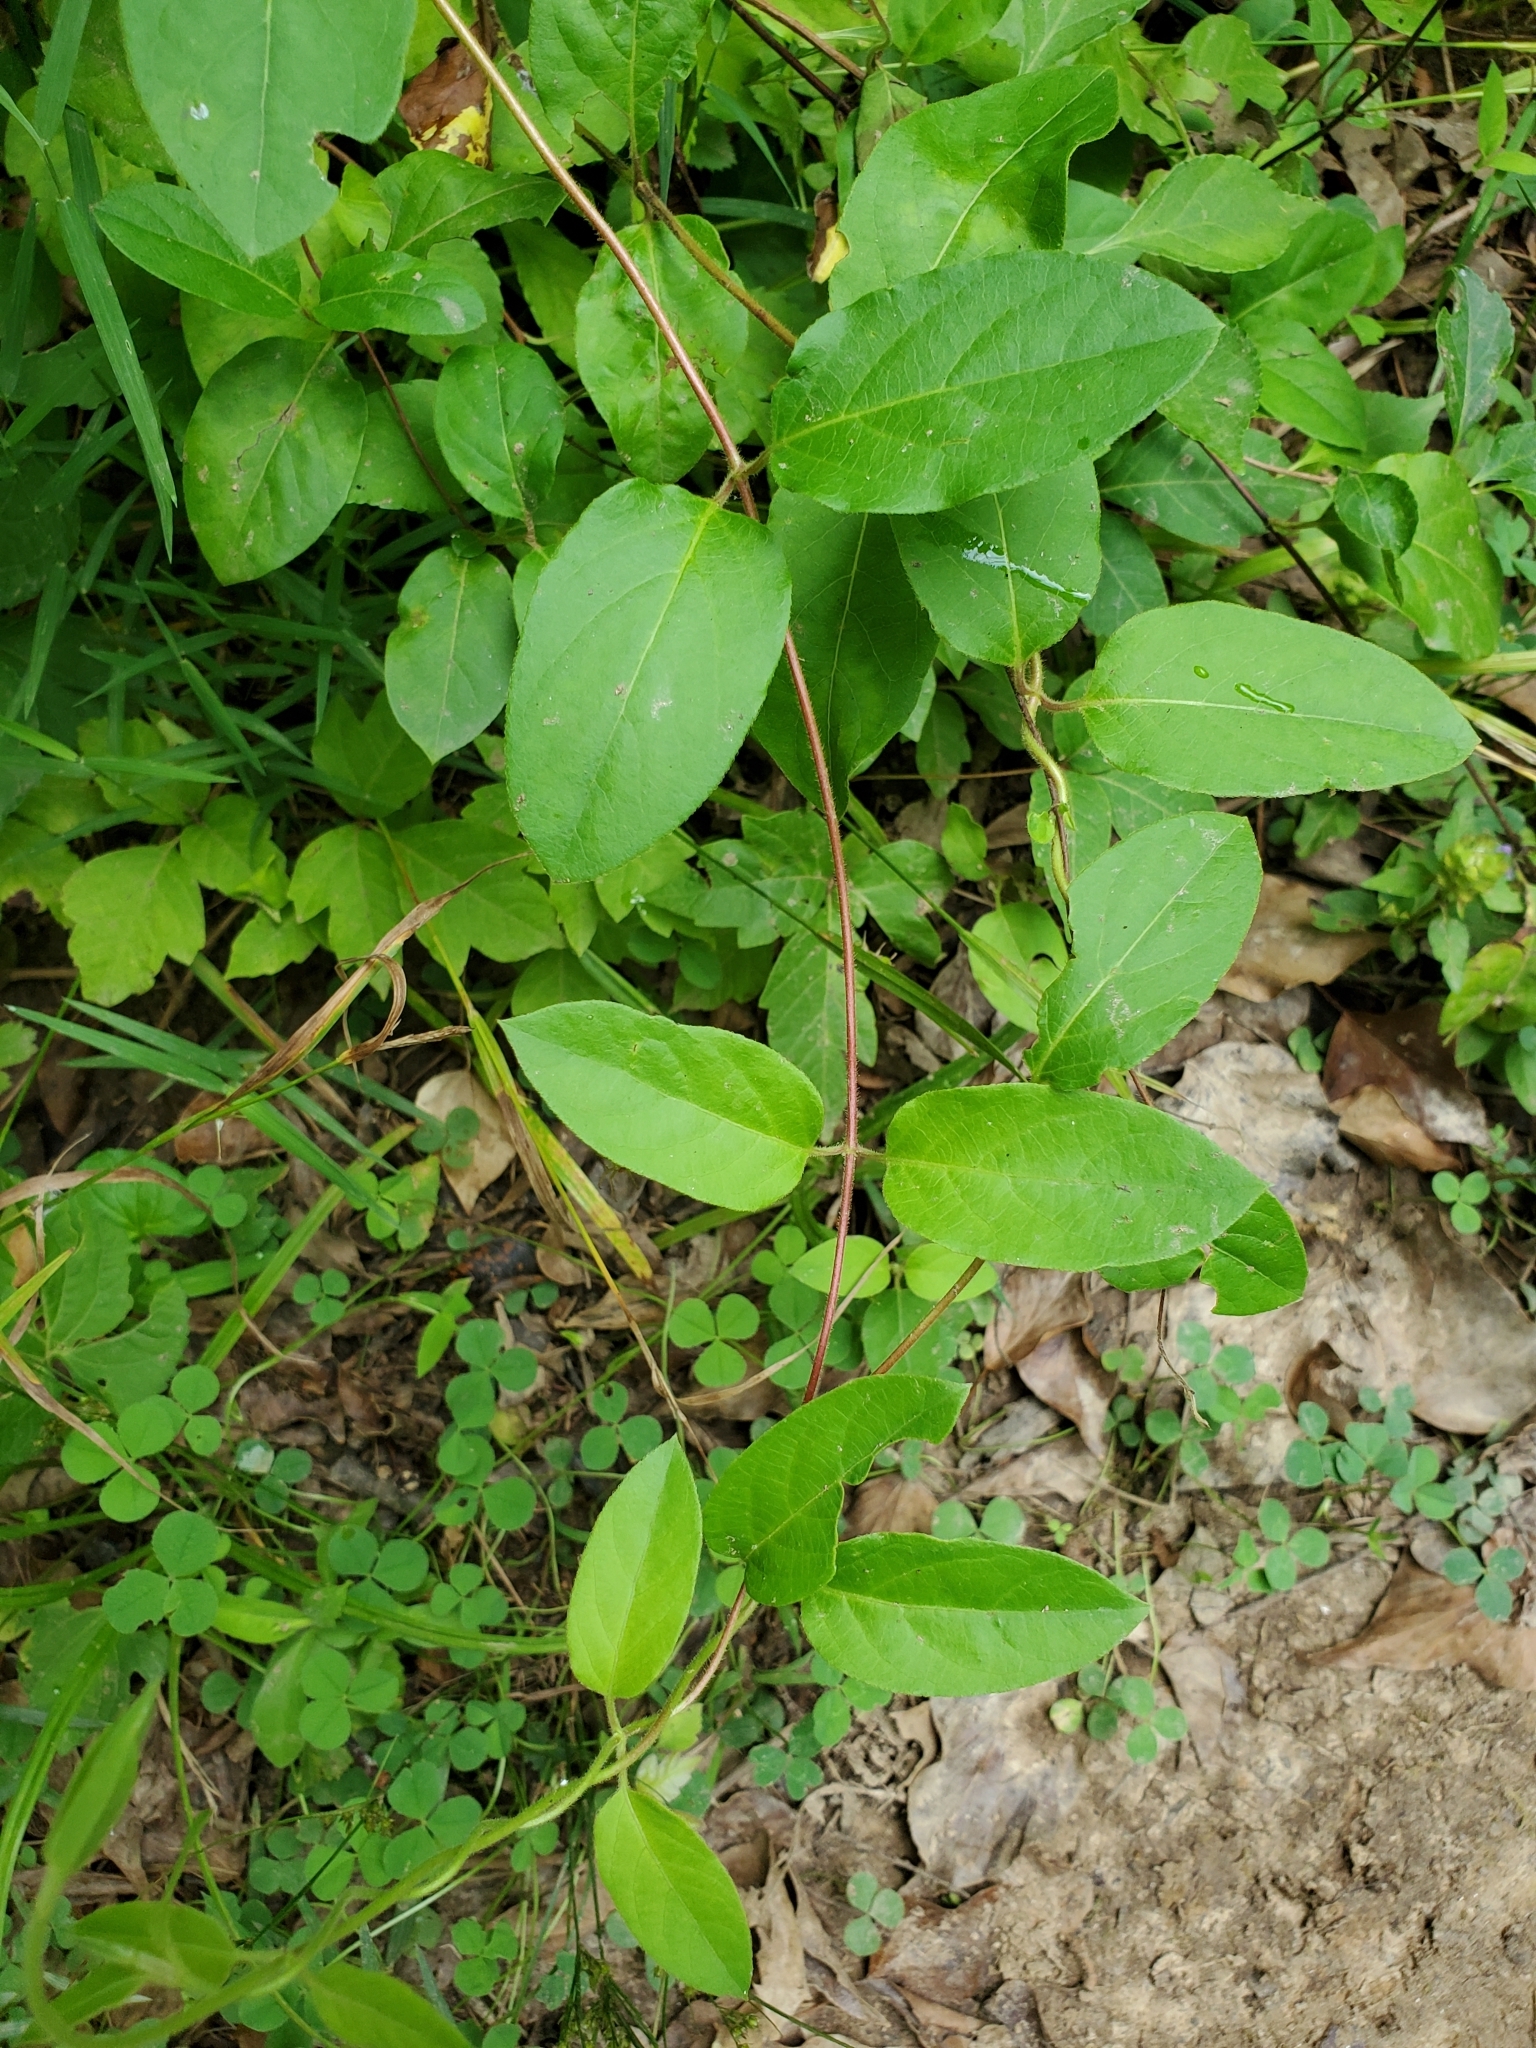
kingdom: Plantae
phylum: Tracheophyta
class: Magnoliopsida
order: Dipsacales
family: Caprifoliaceae
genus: Lonicera
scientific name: Lonicera japonica
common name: Japanese honeysuckle
